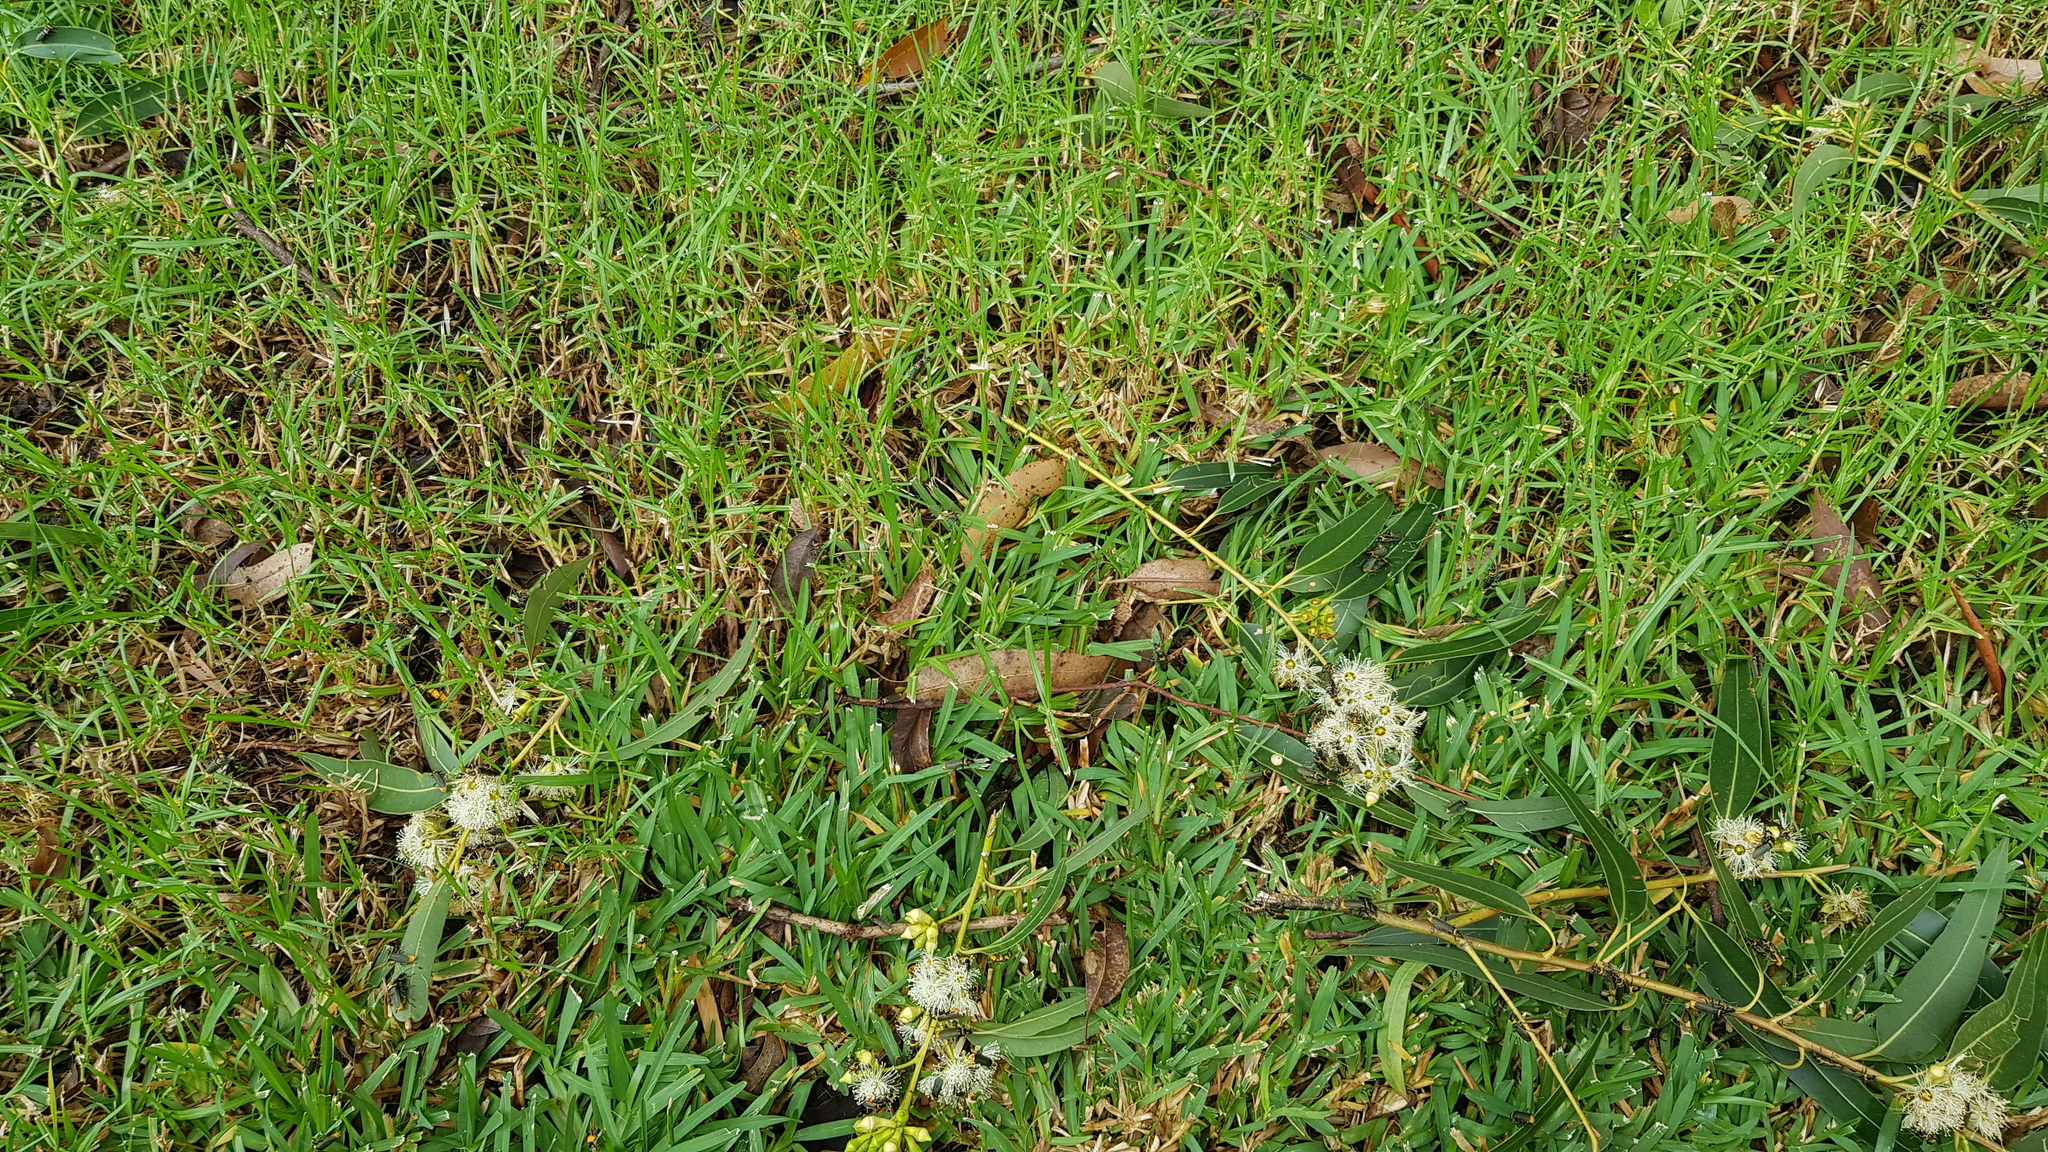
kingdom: Animalia
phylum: Arthropoda
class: Insecta
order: Coleoptera
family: Cantharidae
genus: Chauliognathus
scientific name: Chauliognathus
